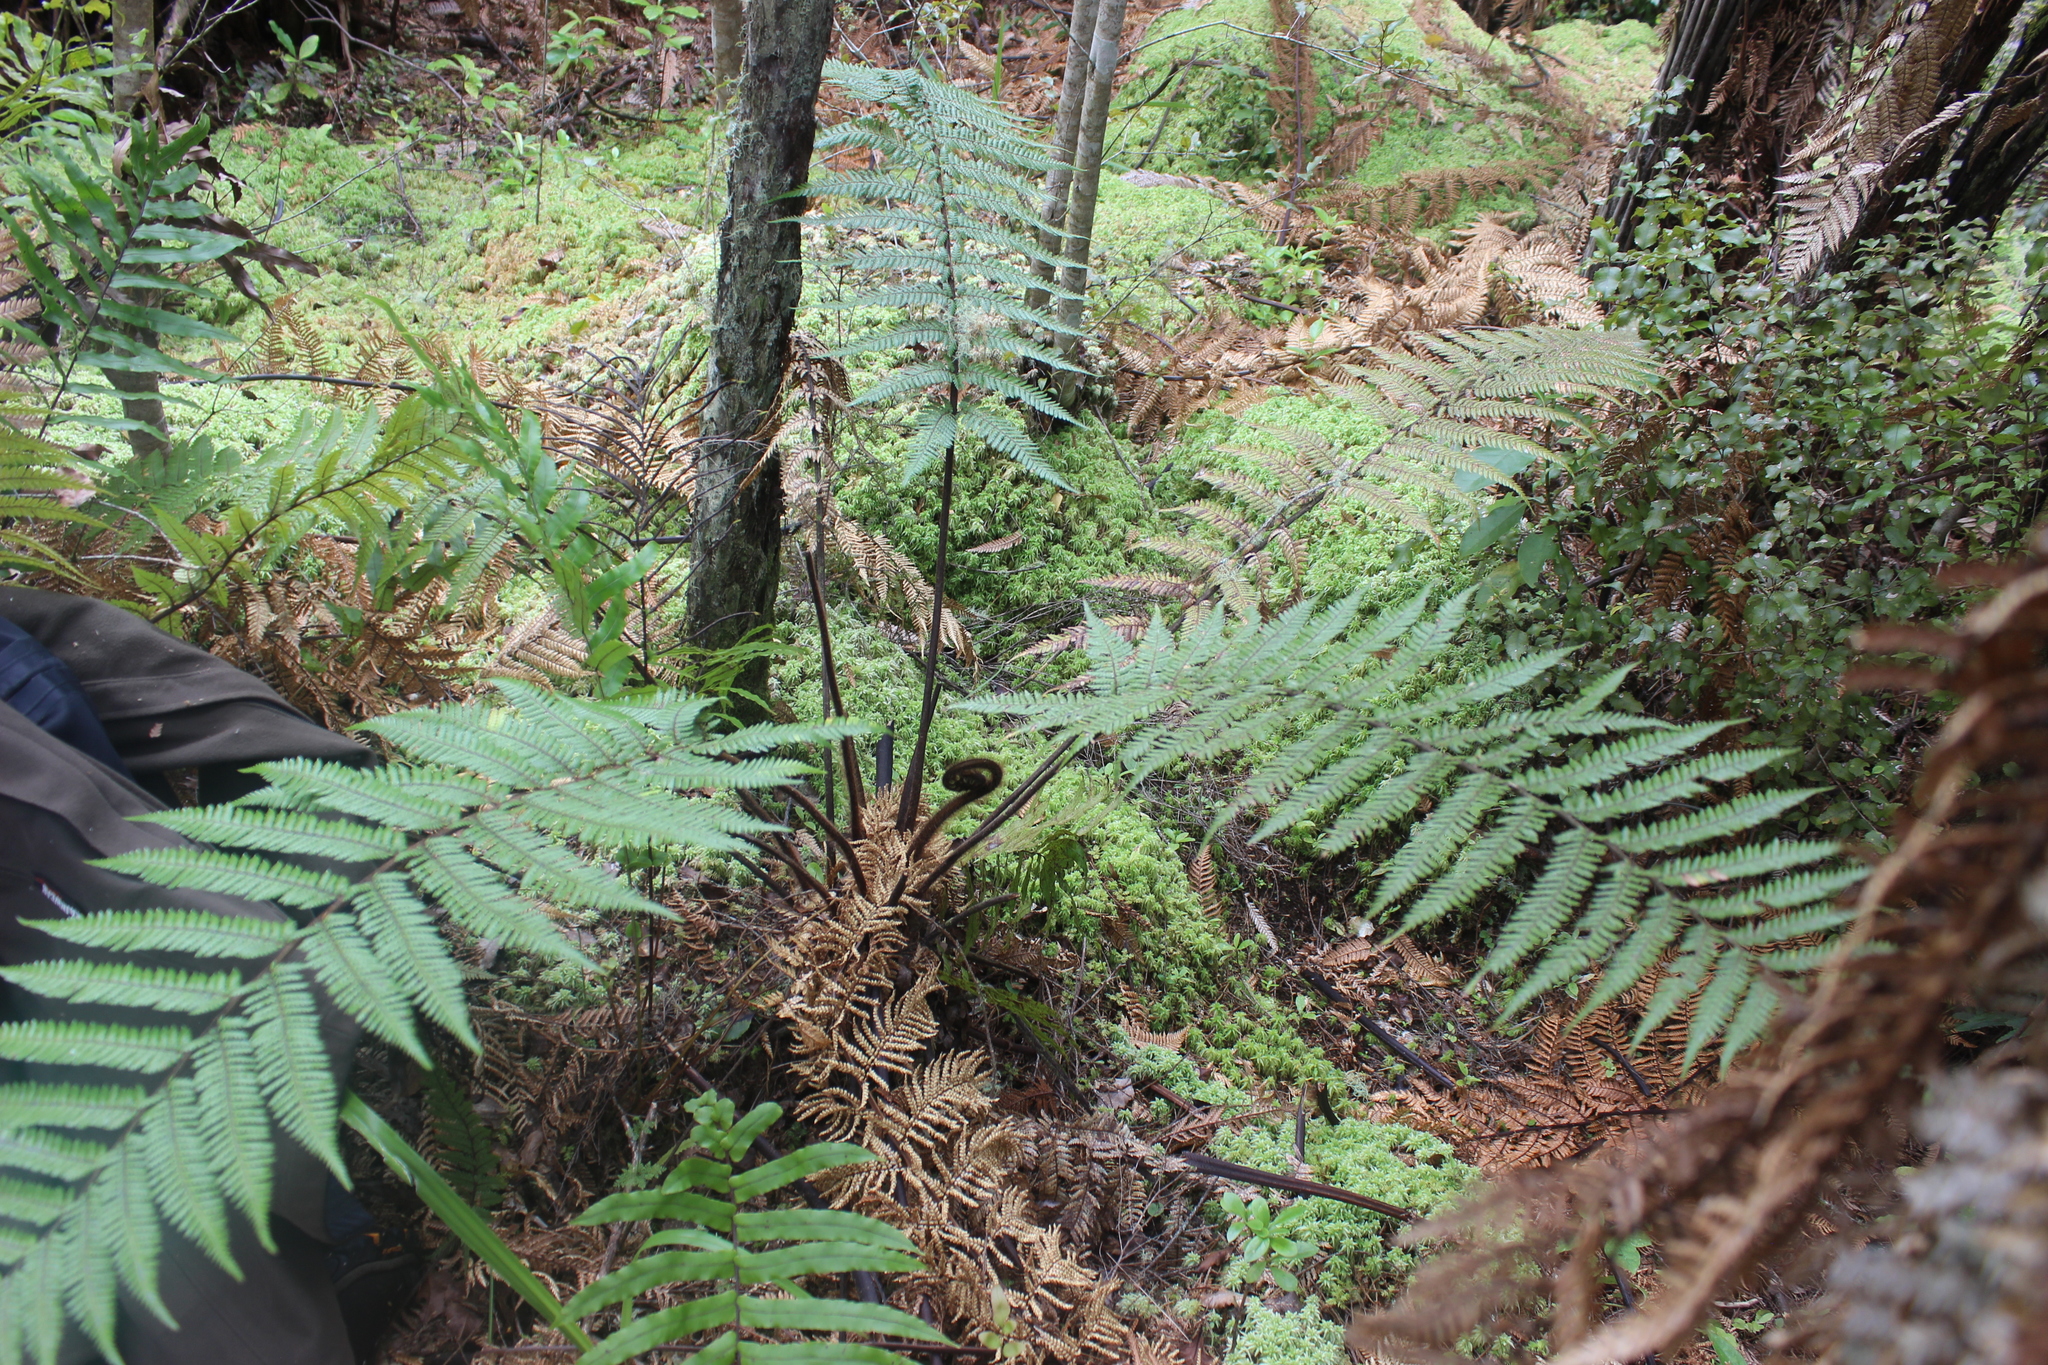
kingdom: Plantae
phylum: Tracheophyta
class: Polypodiopsida
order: Cyatheales
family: Dicksoniaceae
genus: Dicksonia
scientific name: Dicksonia squarrosa
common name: Hard treefern
